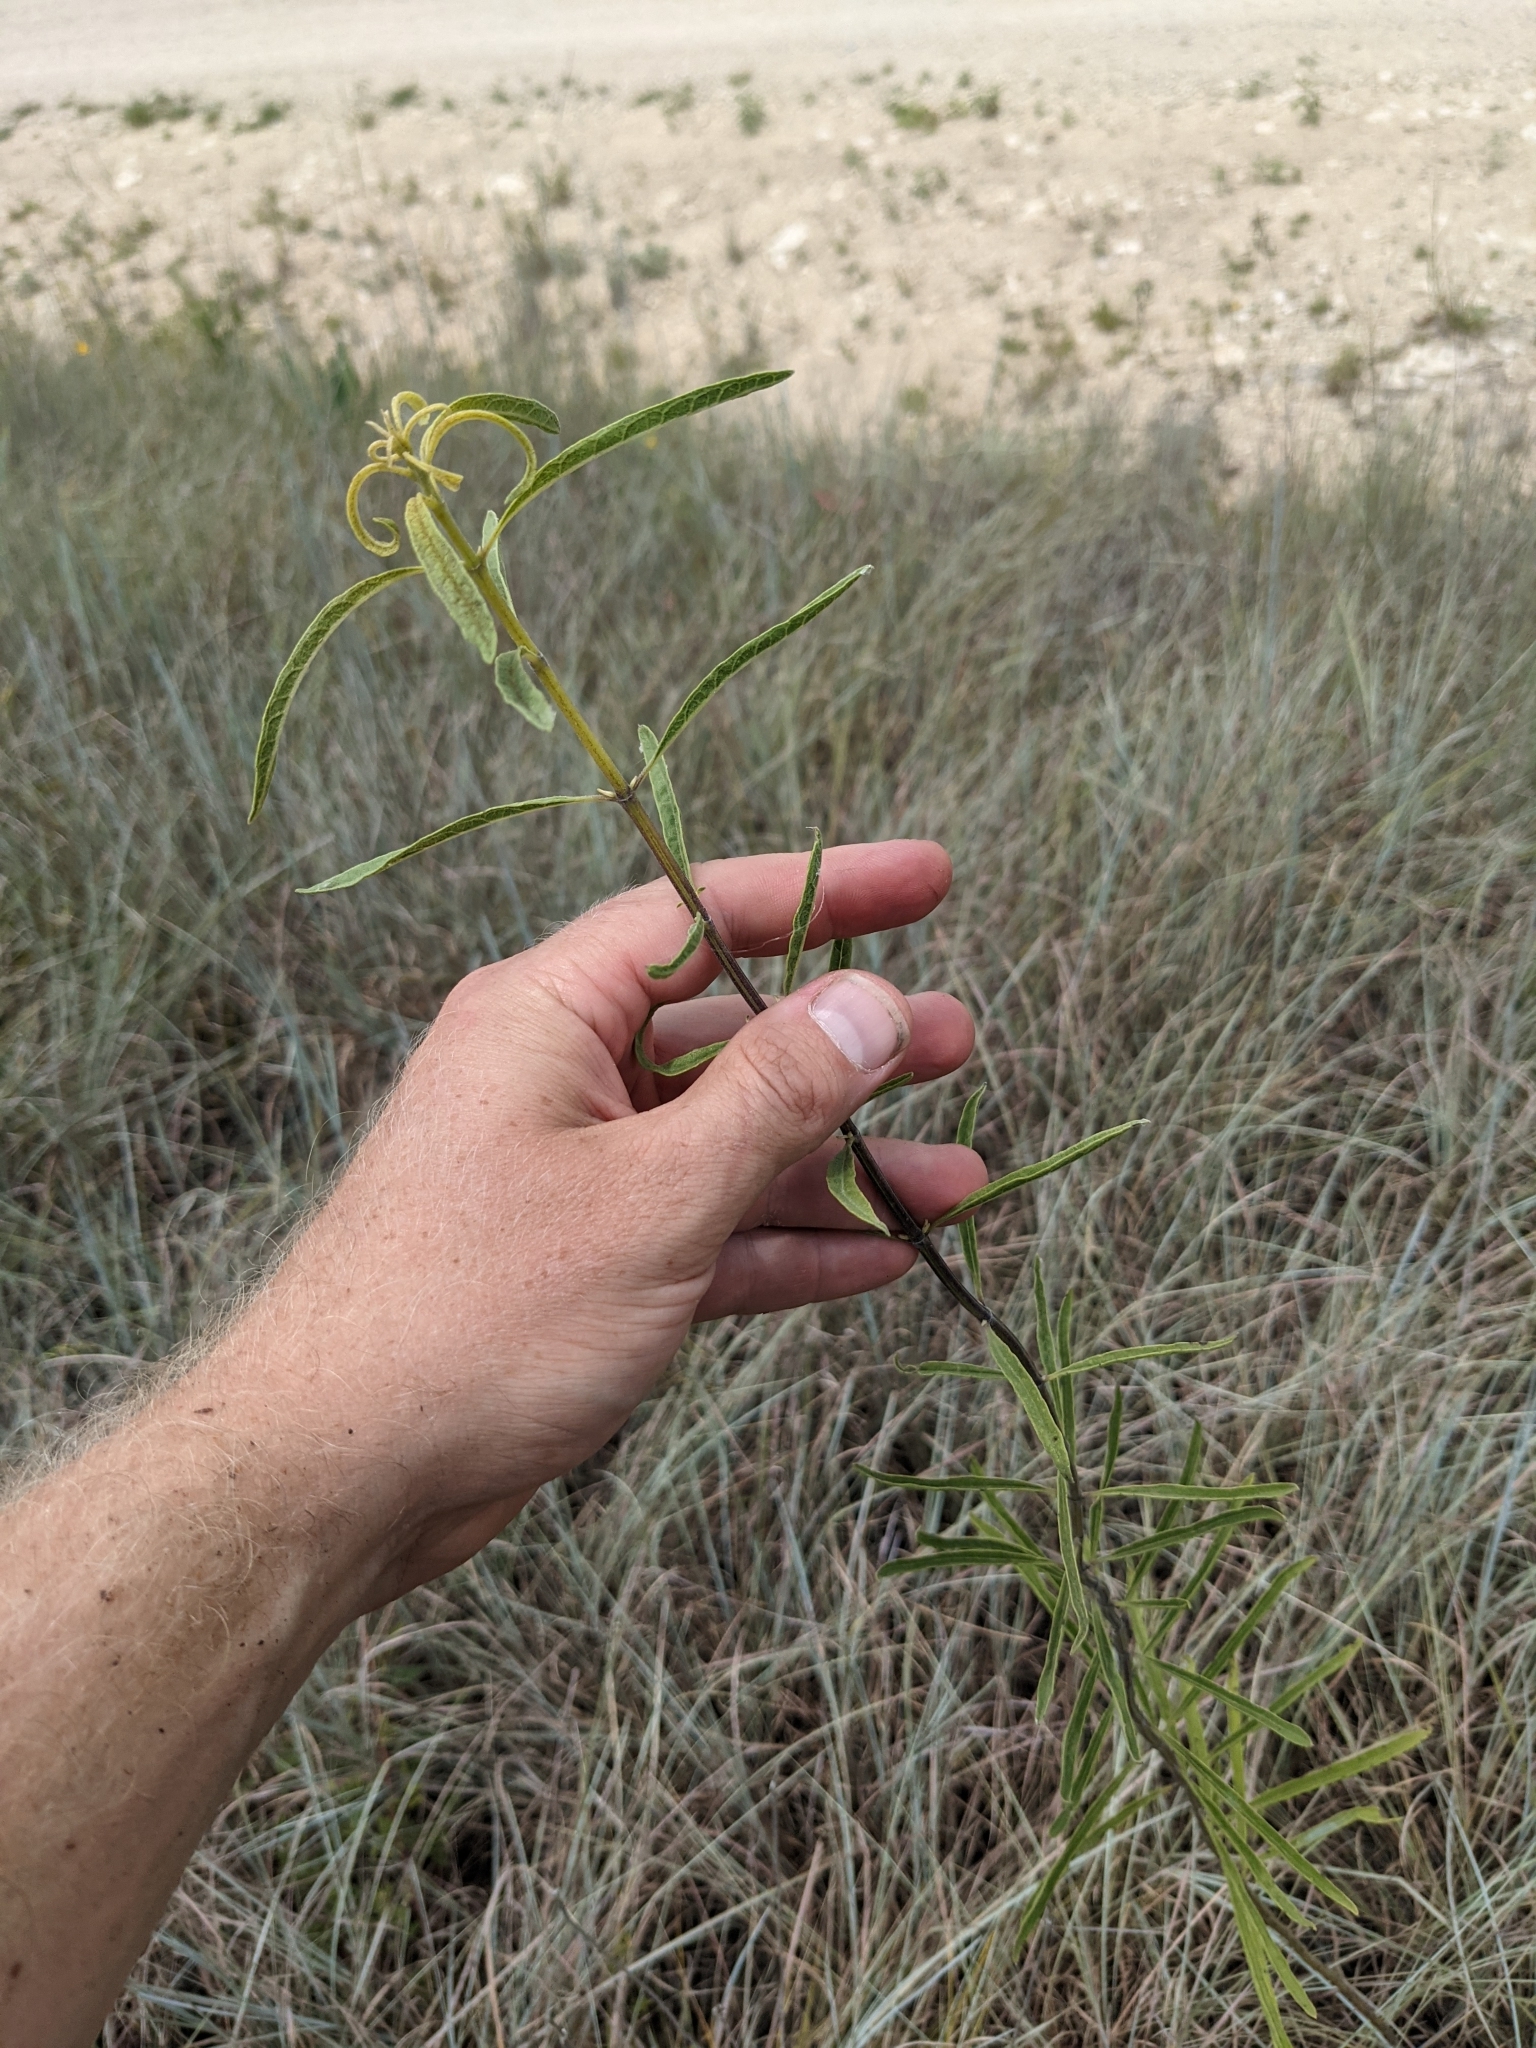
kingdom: Plantae
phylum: Tracheophyta
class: Magnoliopsida
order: Lamiales
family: Lamiaceae
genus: Salvia
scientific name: Salvia azurea
